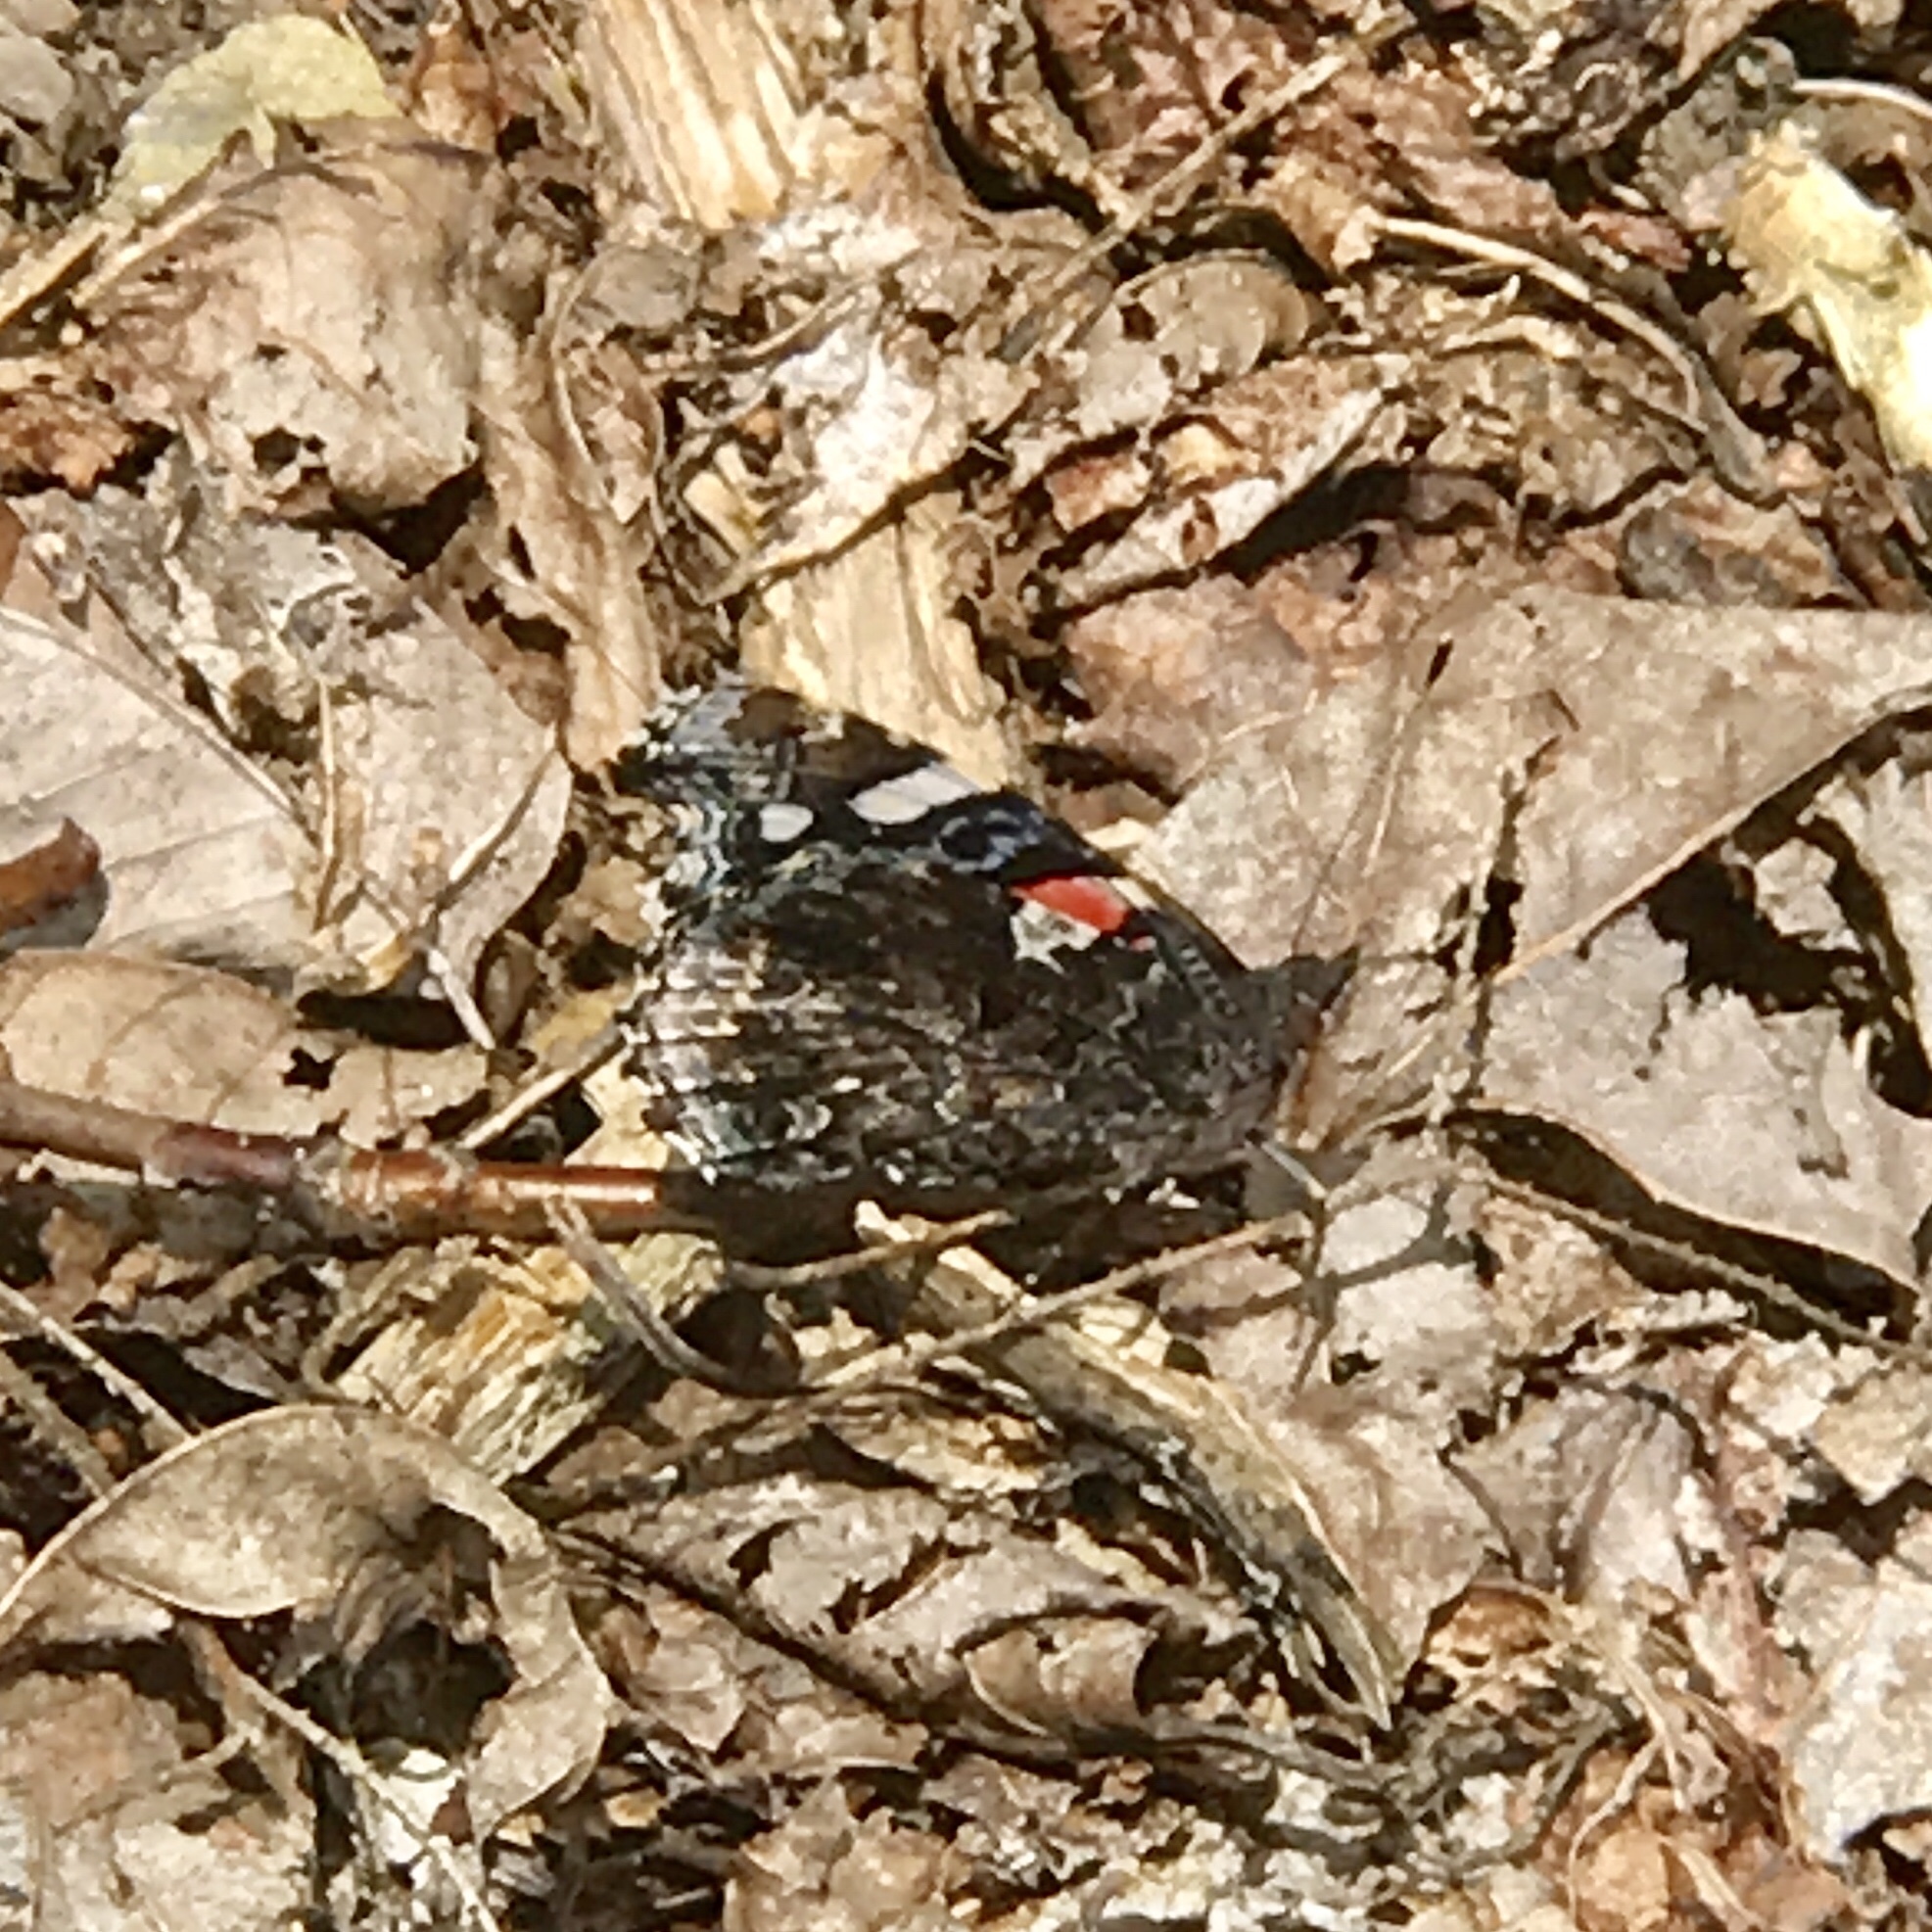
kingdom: Animalia
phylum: Arthropoda
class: Insecta
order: Lepidoptera
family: Nymphalidae
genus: Vanessa
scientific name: Vanessa atalanta
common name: Red admiral
